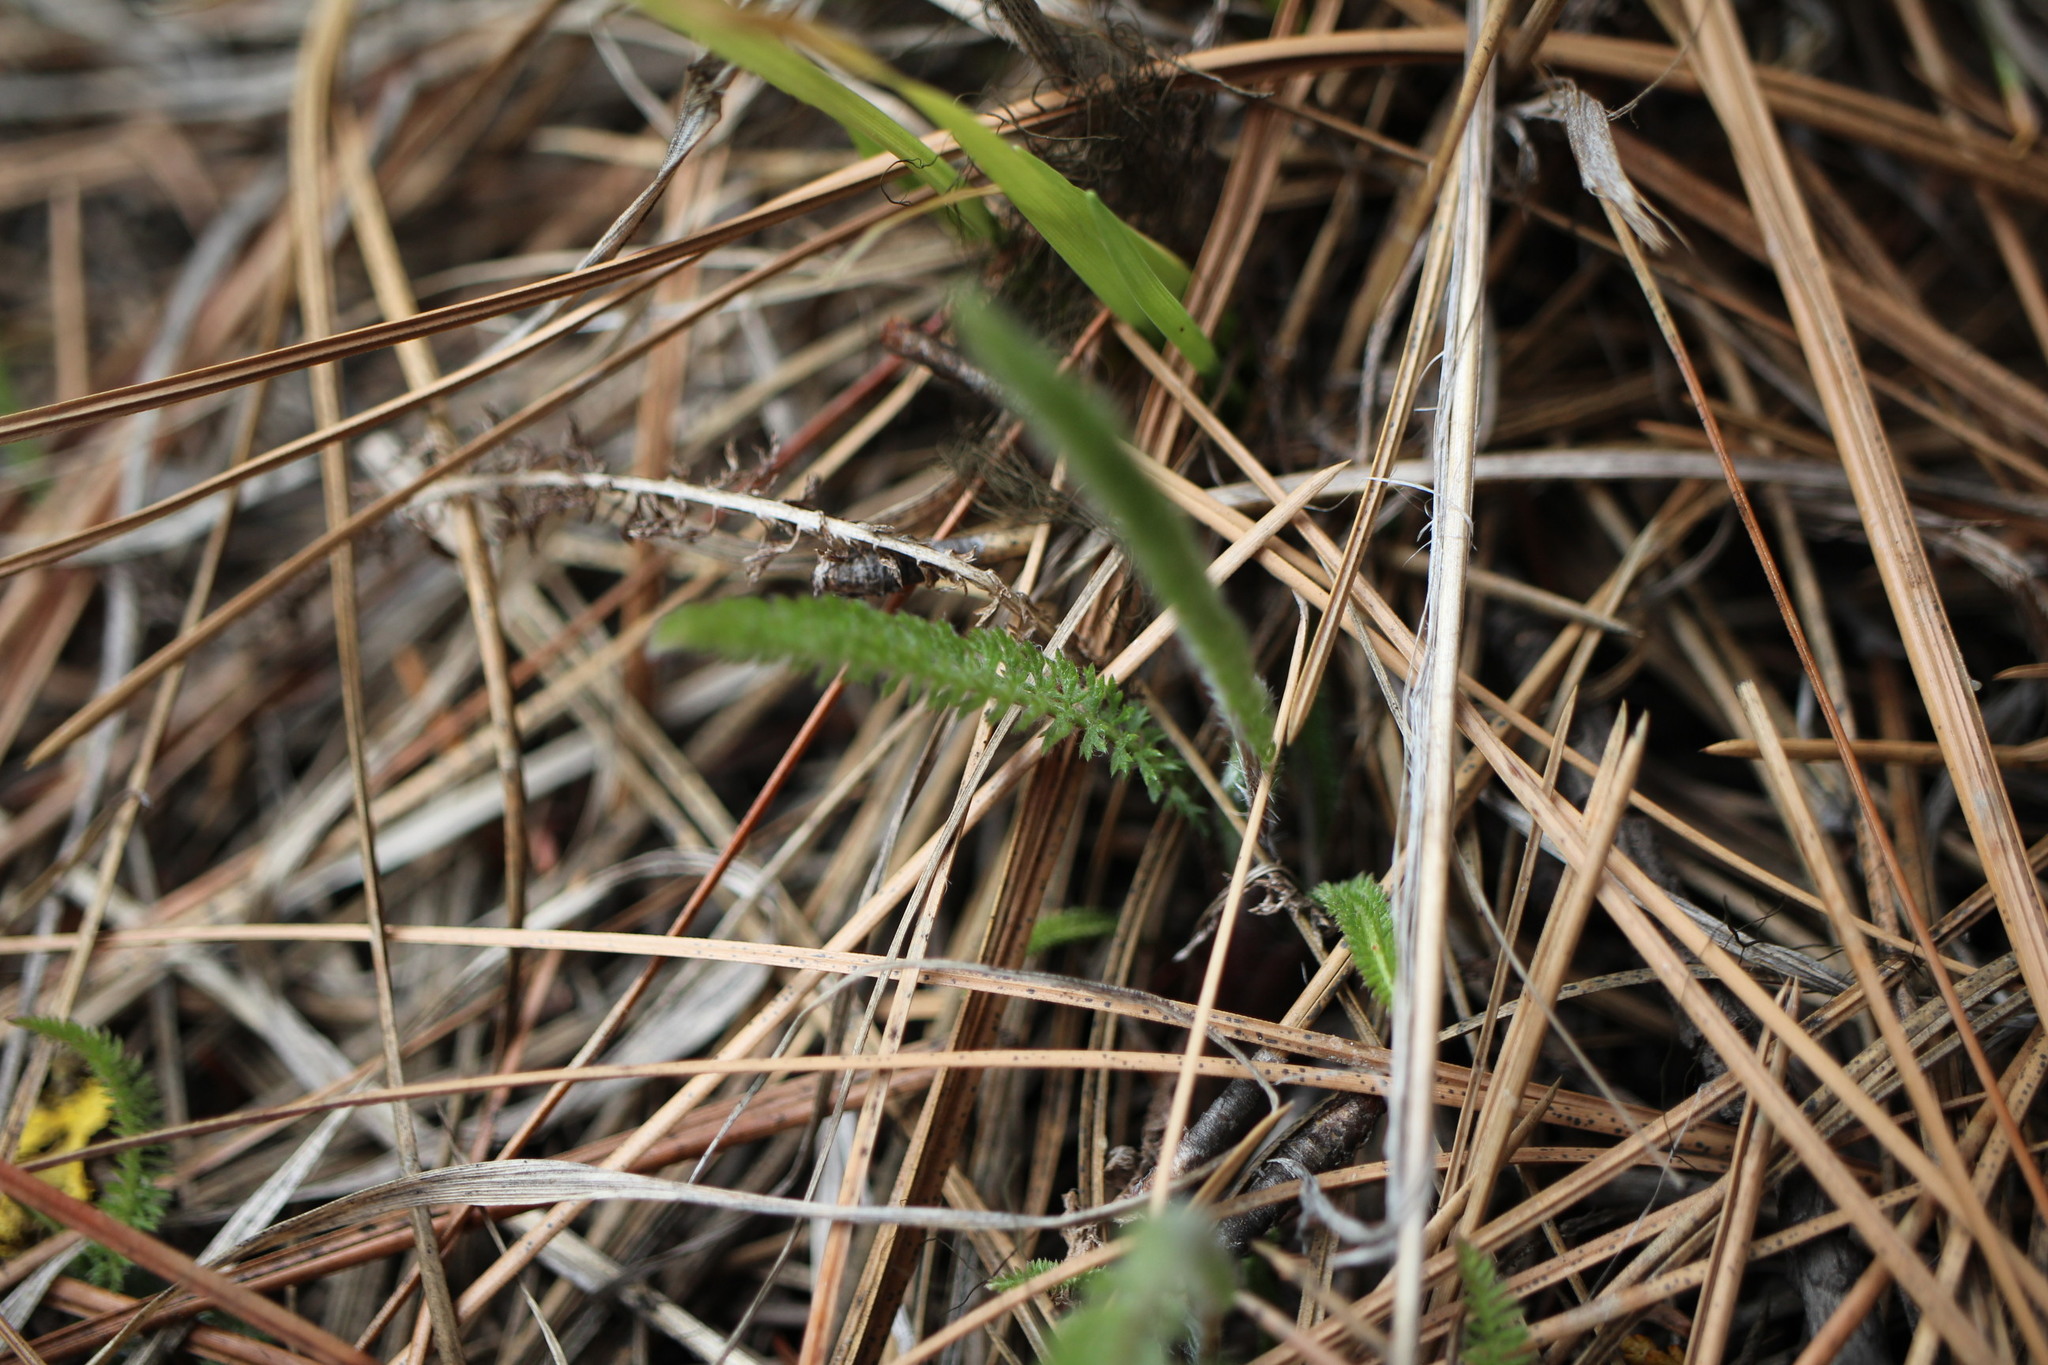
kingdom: Plantae
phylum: Tracheophyta
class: Magnoliopsida
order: Asterales
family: Asteraceae
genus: Achillea
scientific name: Achillea millefolium
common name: Yarrow
